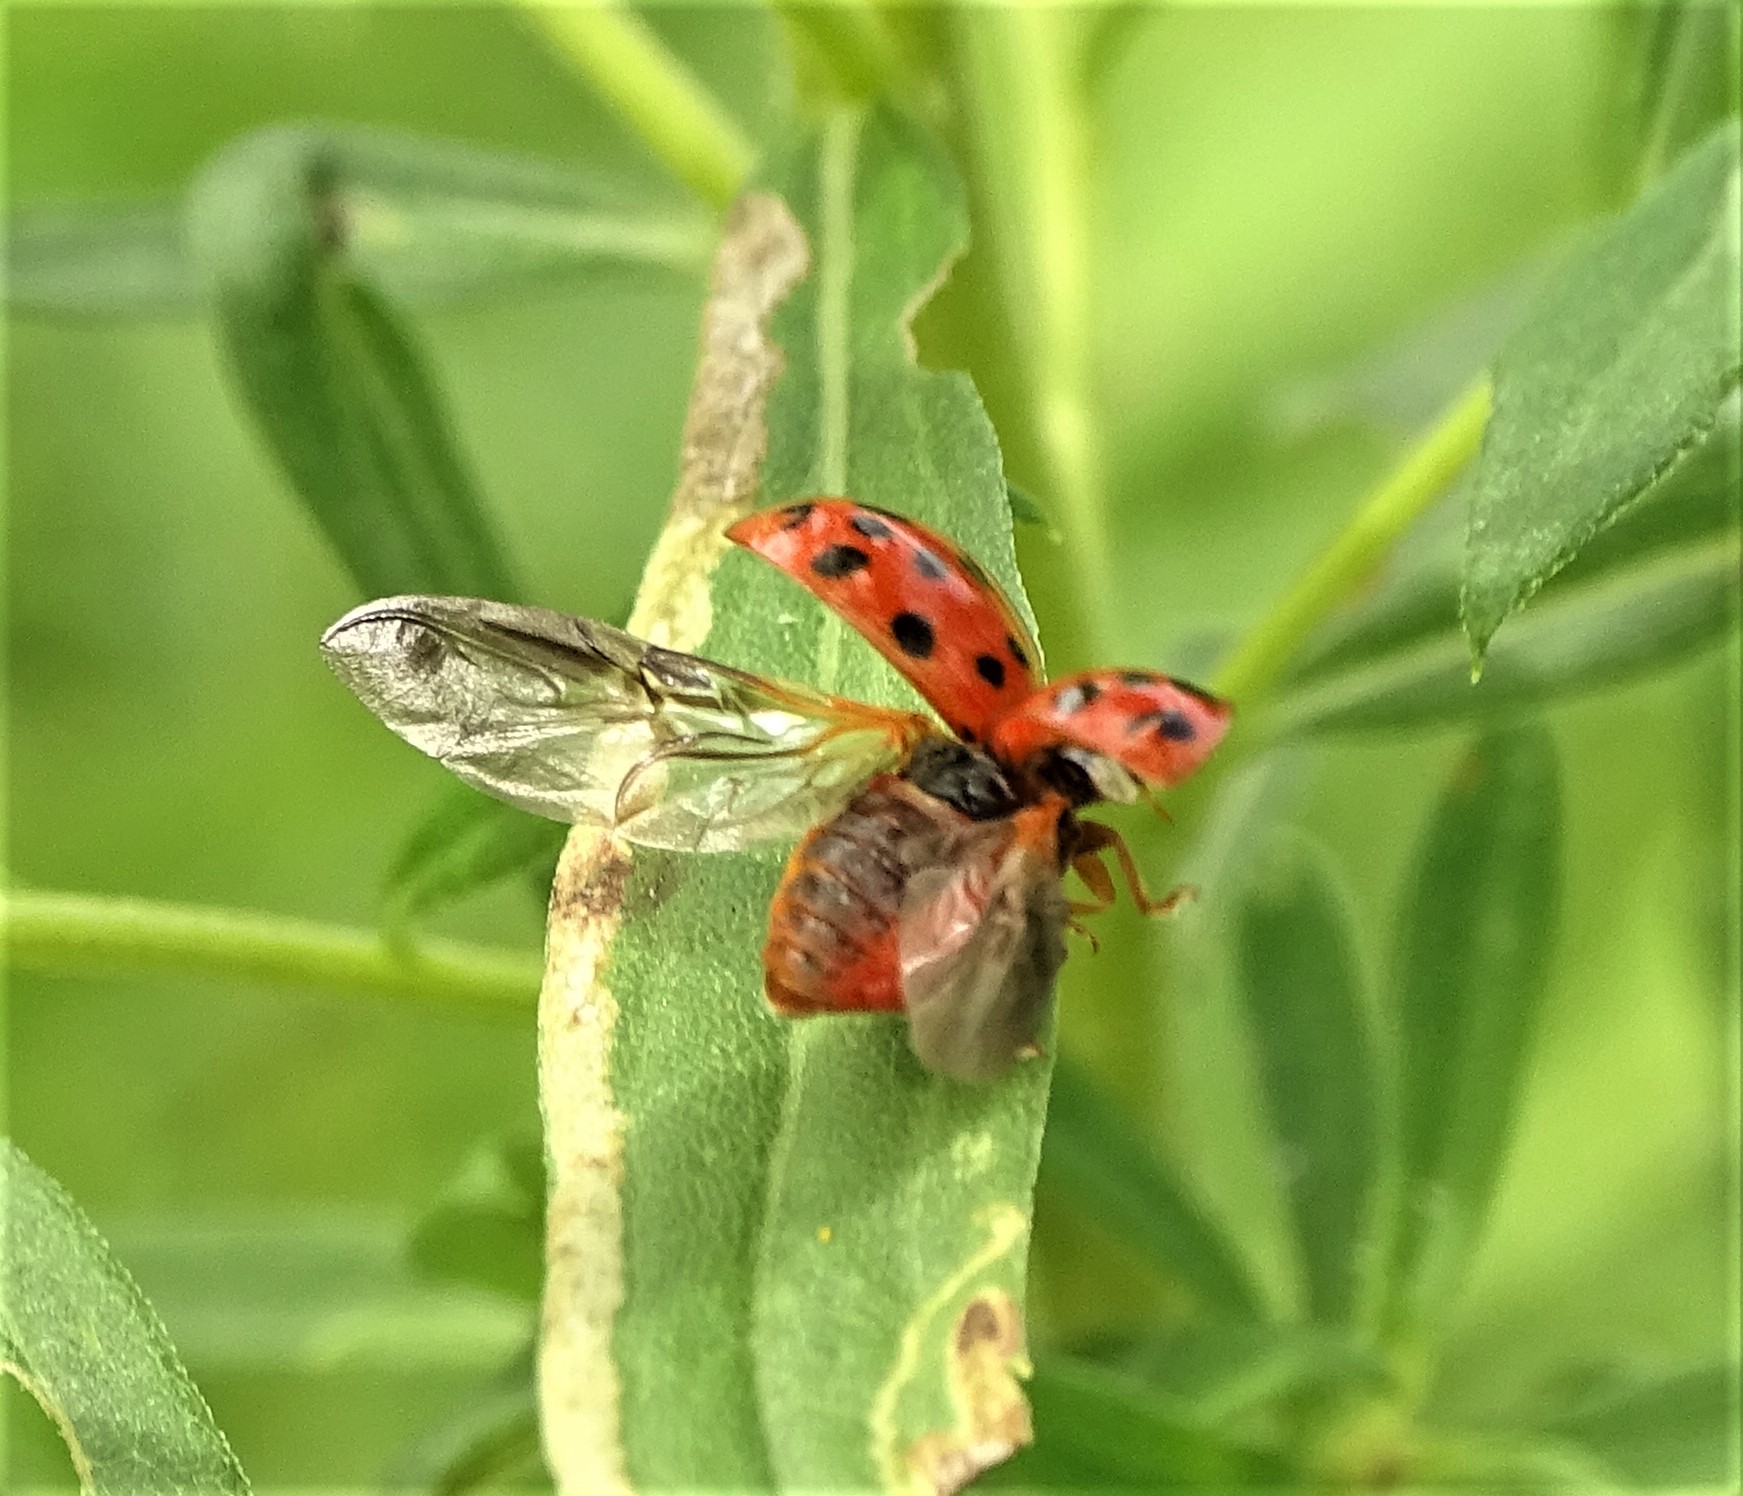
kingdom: Animalia
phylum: Arthropoda
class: Insecta
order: Coleoptera
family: Coccinellidae
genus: Harmonia
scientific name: Harmonia axyridis
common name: Harlequin ladybird
